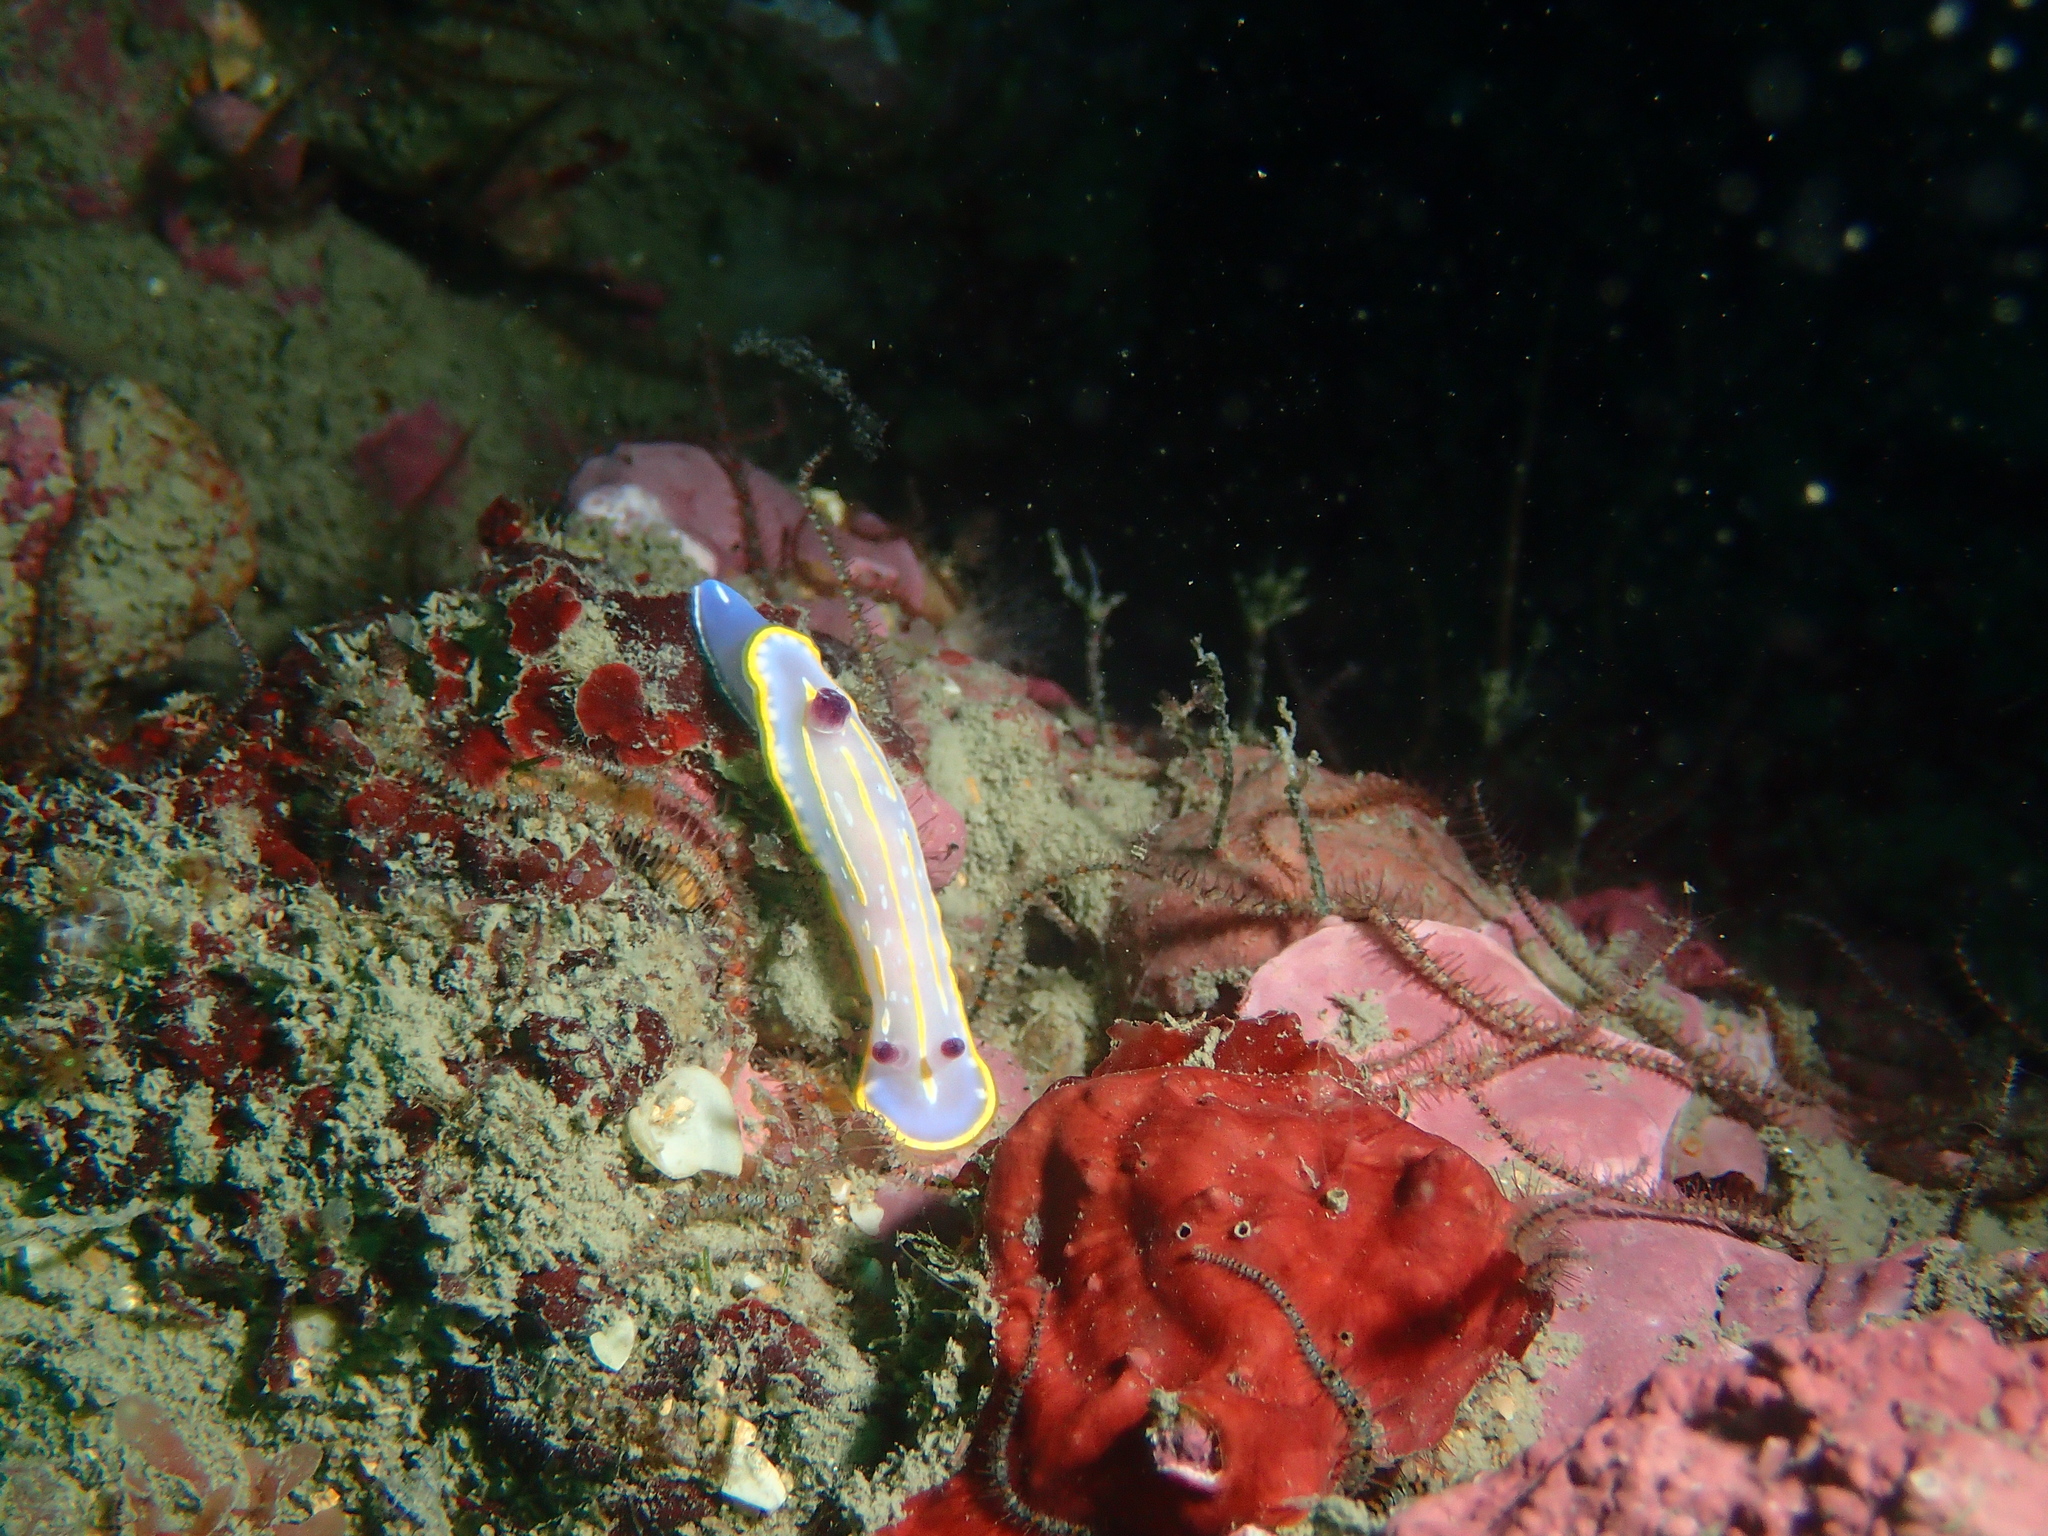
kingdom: Animalia
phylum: Mollusca
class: Gastropoda
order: Nudibranchia
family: Chromodorididae
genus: Felimida
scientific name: Felimida krohni
